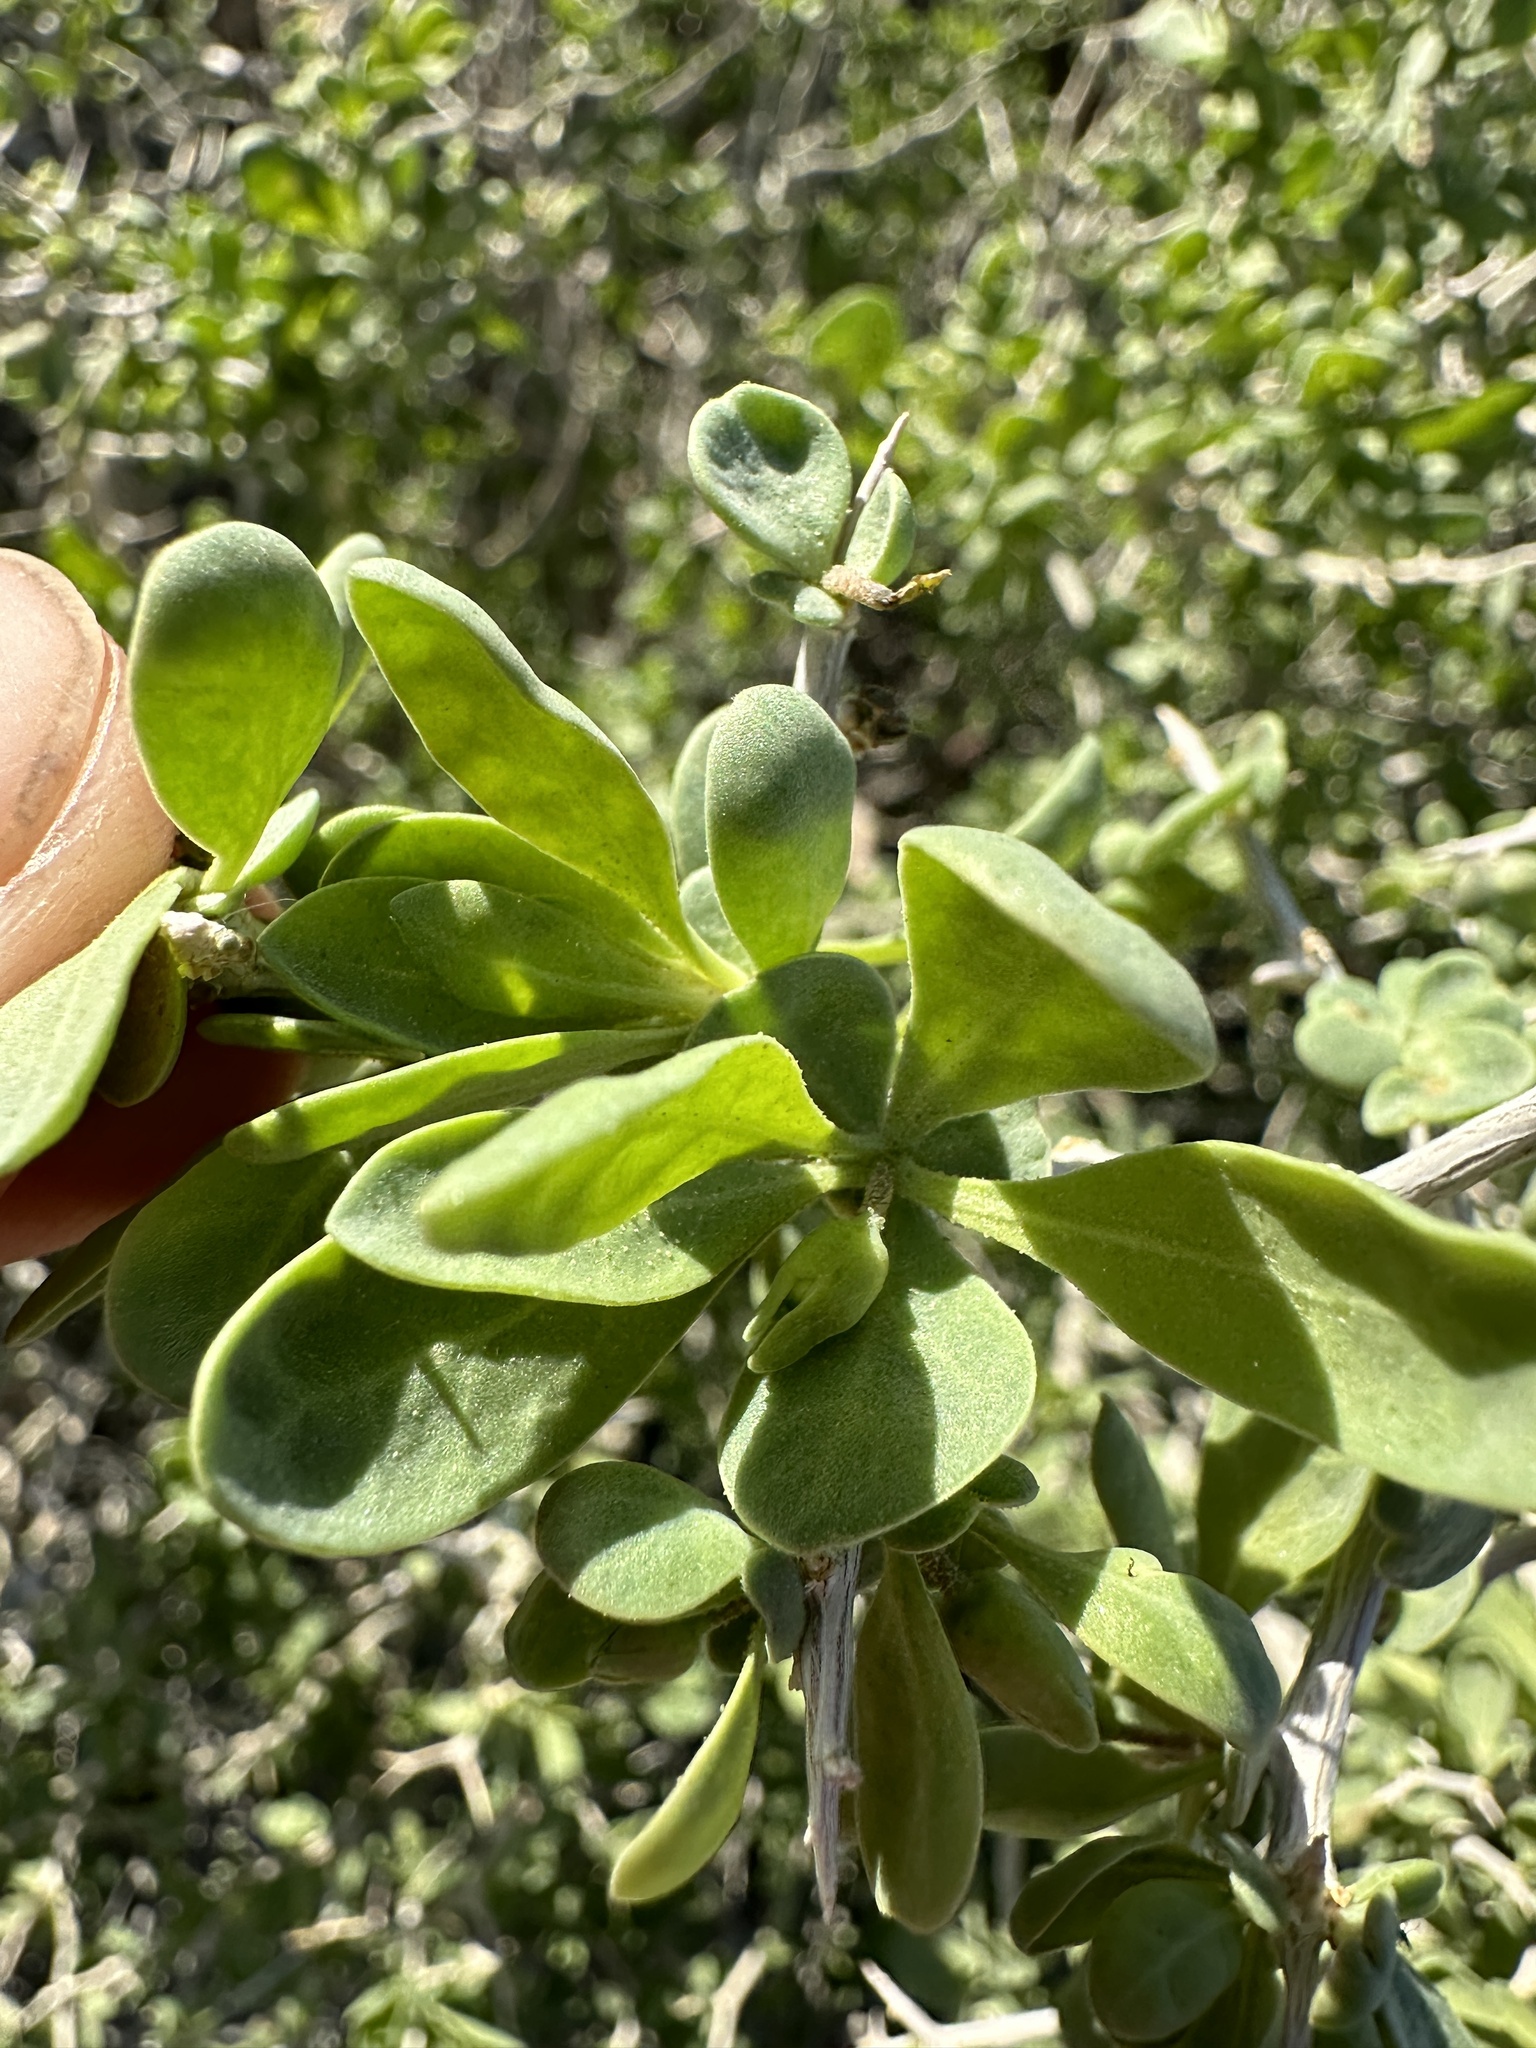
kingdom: Plantae
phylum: Tracheophyta
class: Magnoliopsida
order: Solanales
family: Solanaceae
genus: Lycium
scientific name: Lycium cooperi
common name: Peachthorn
